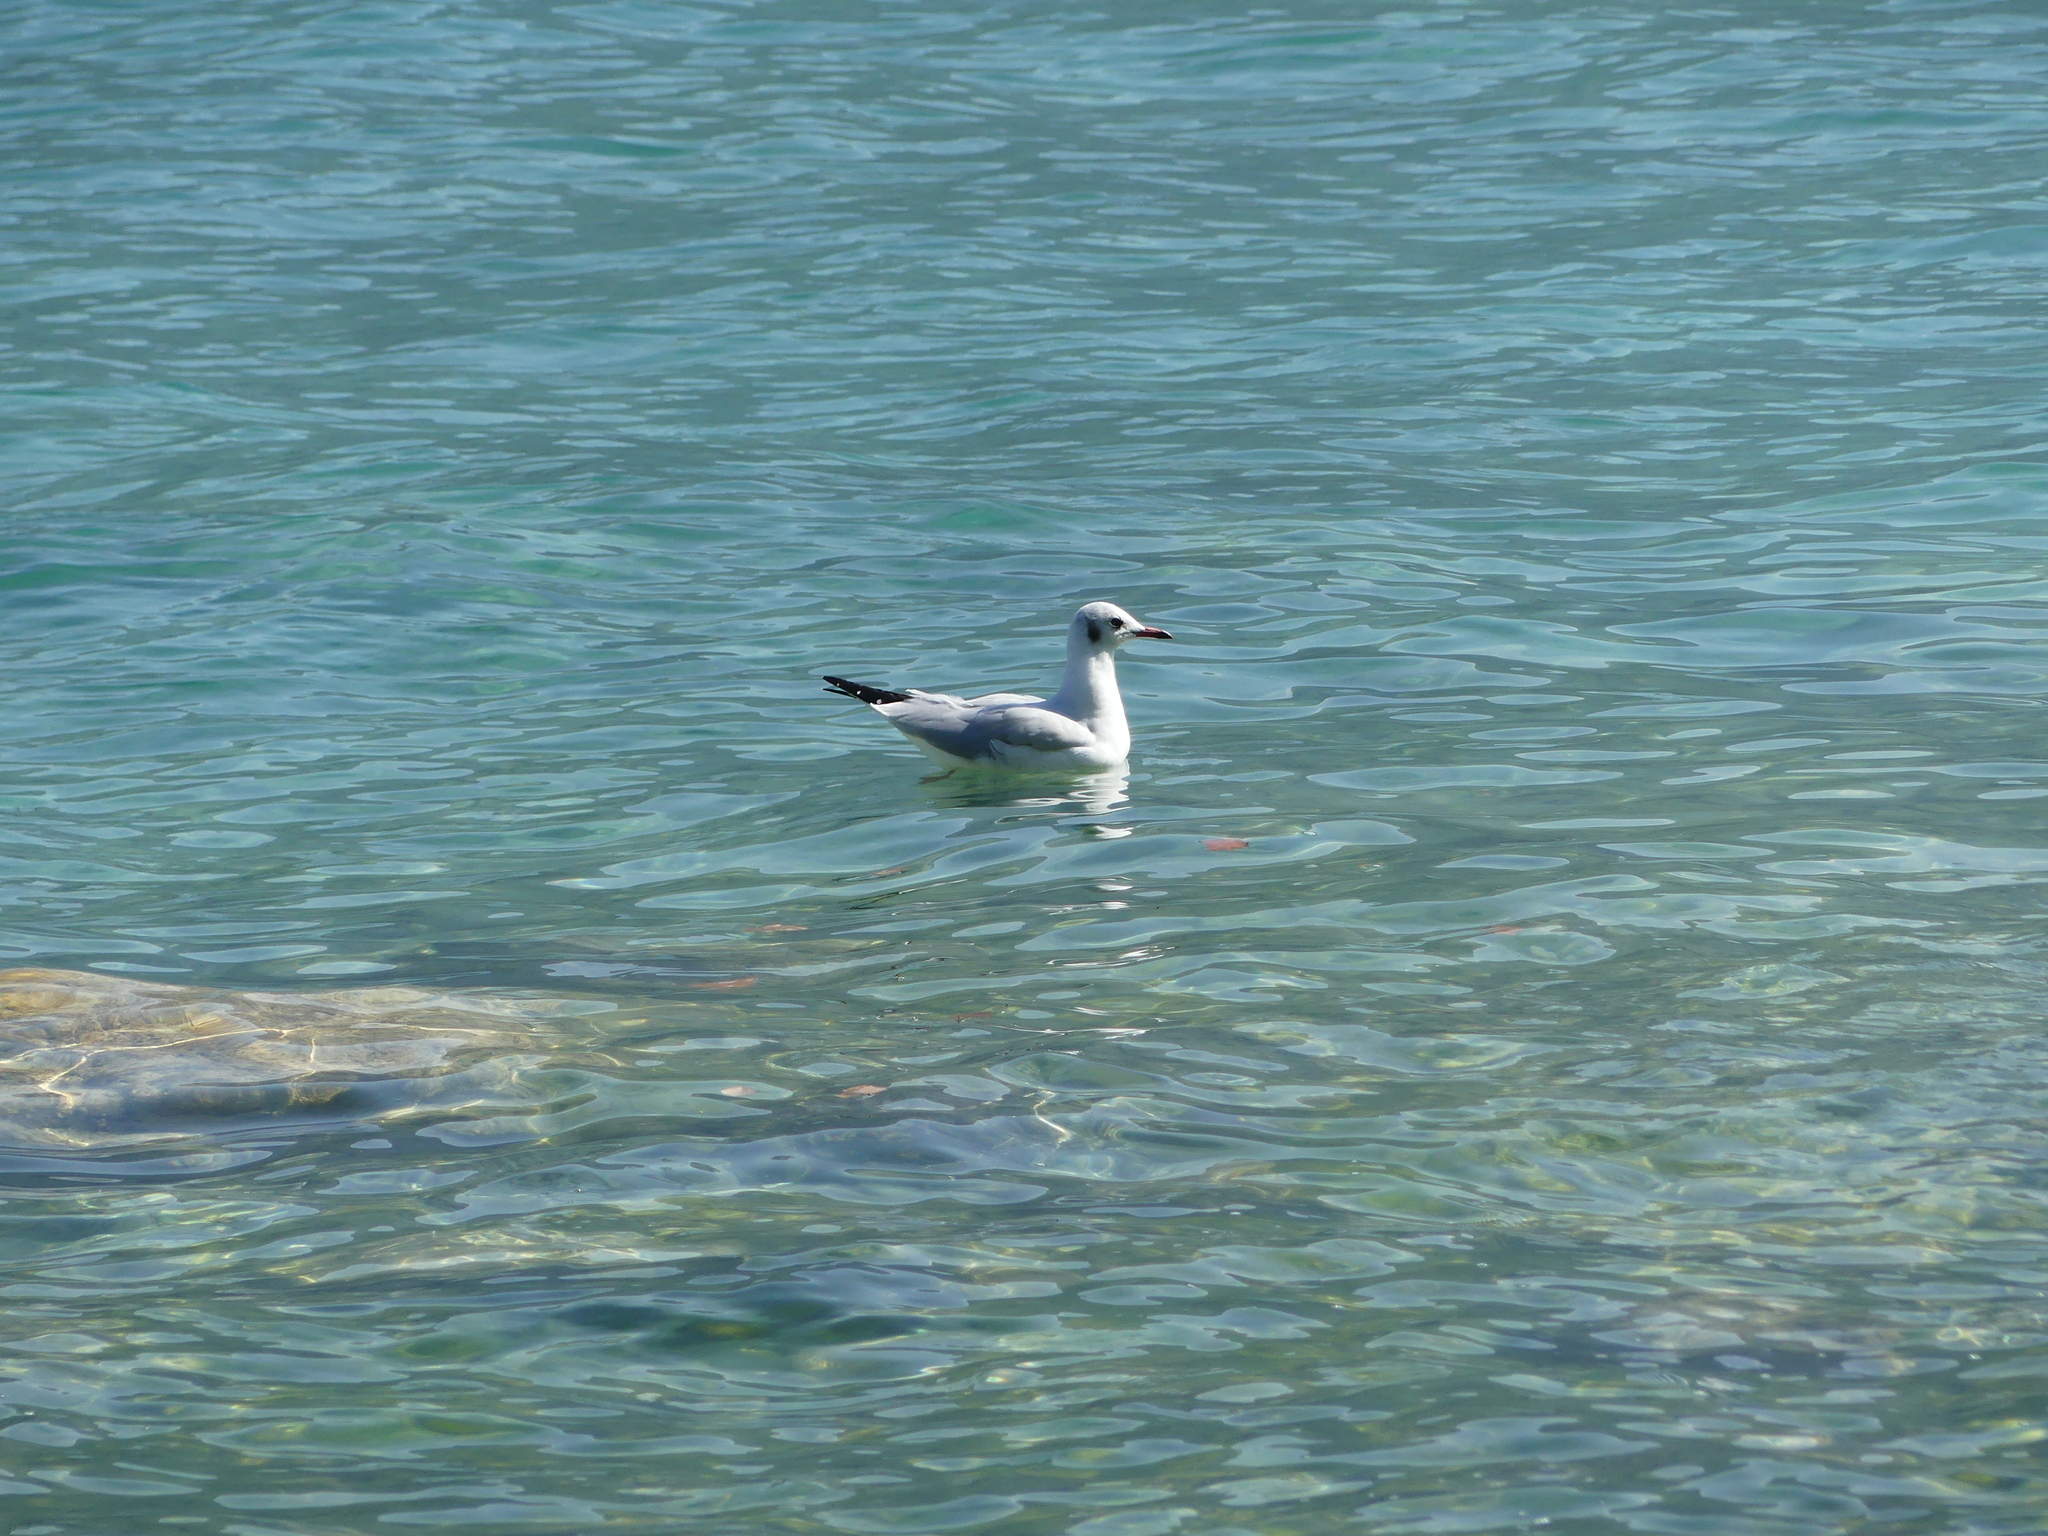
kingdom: Animalia
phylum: Chordata
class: Aves
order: Charadriiformes
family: Laridae
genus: Chroicocephalus
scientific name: Chroicocephalus ridibundus
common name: Black-headed gull
